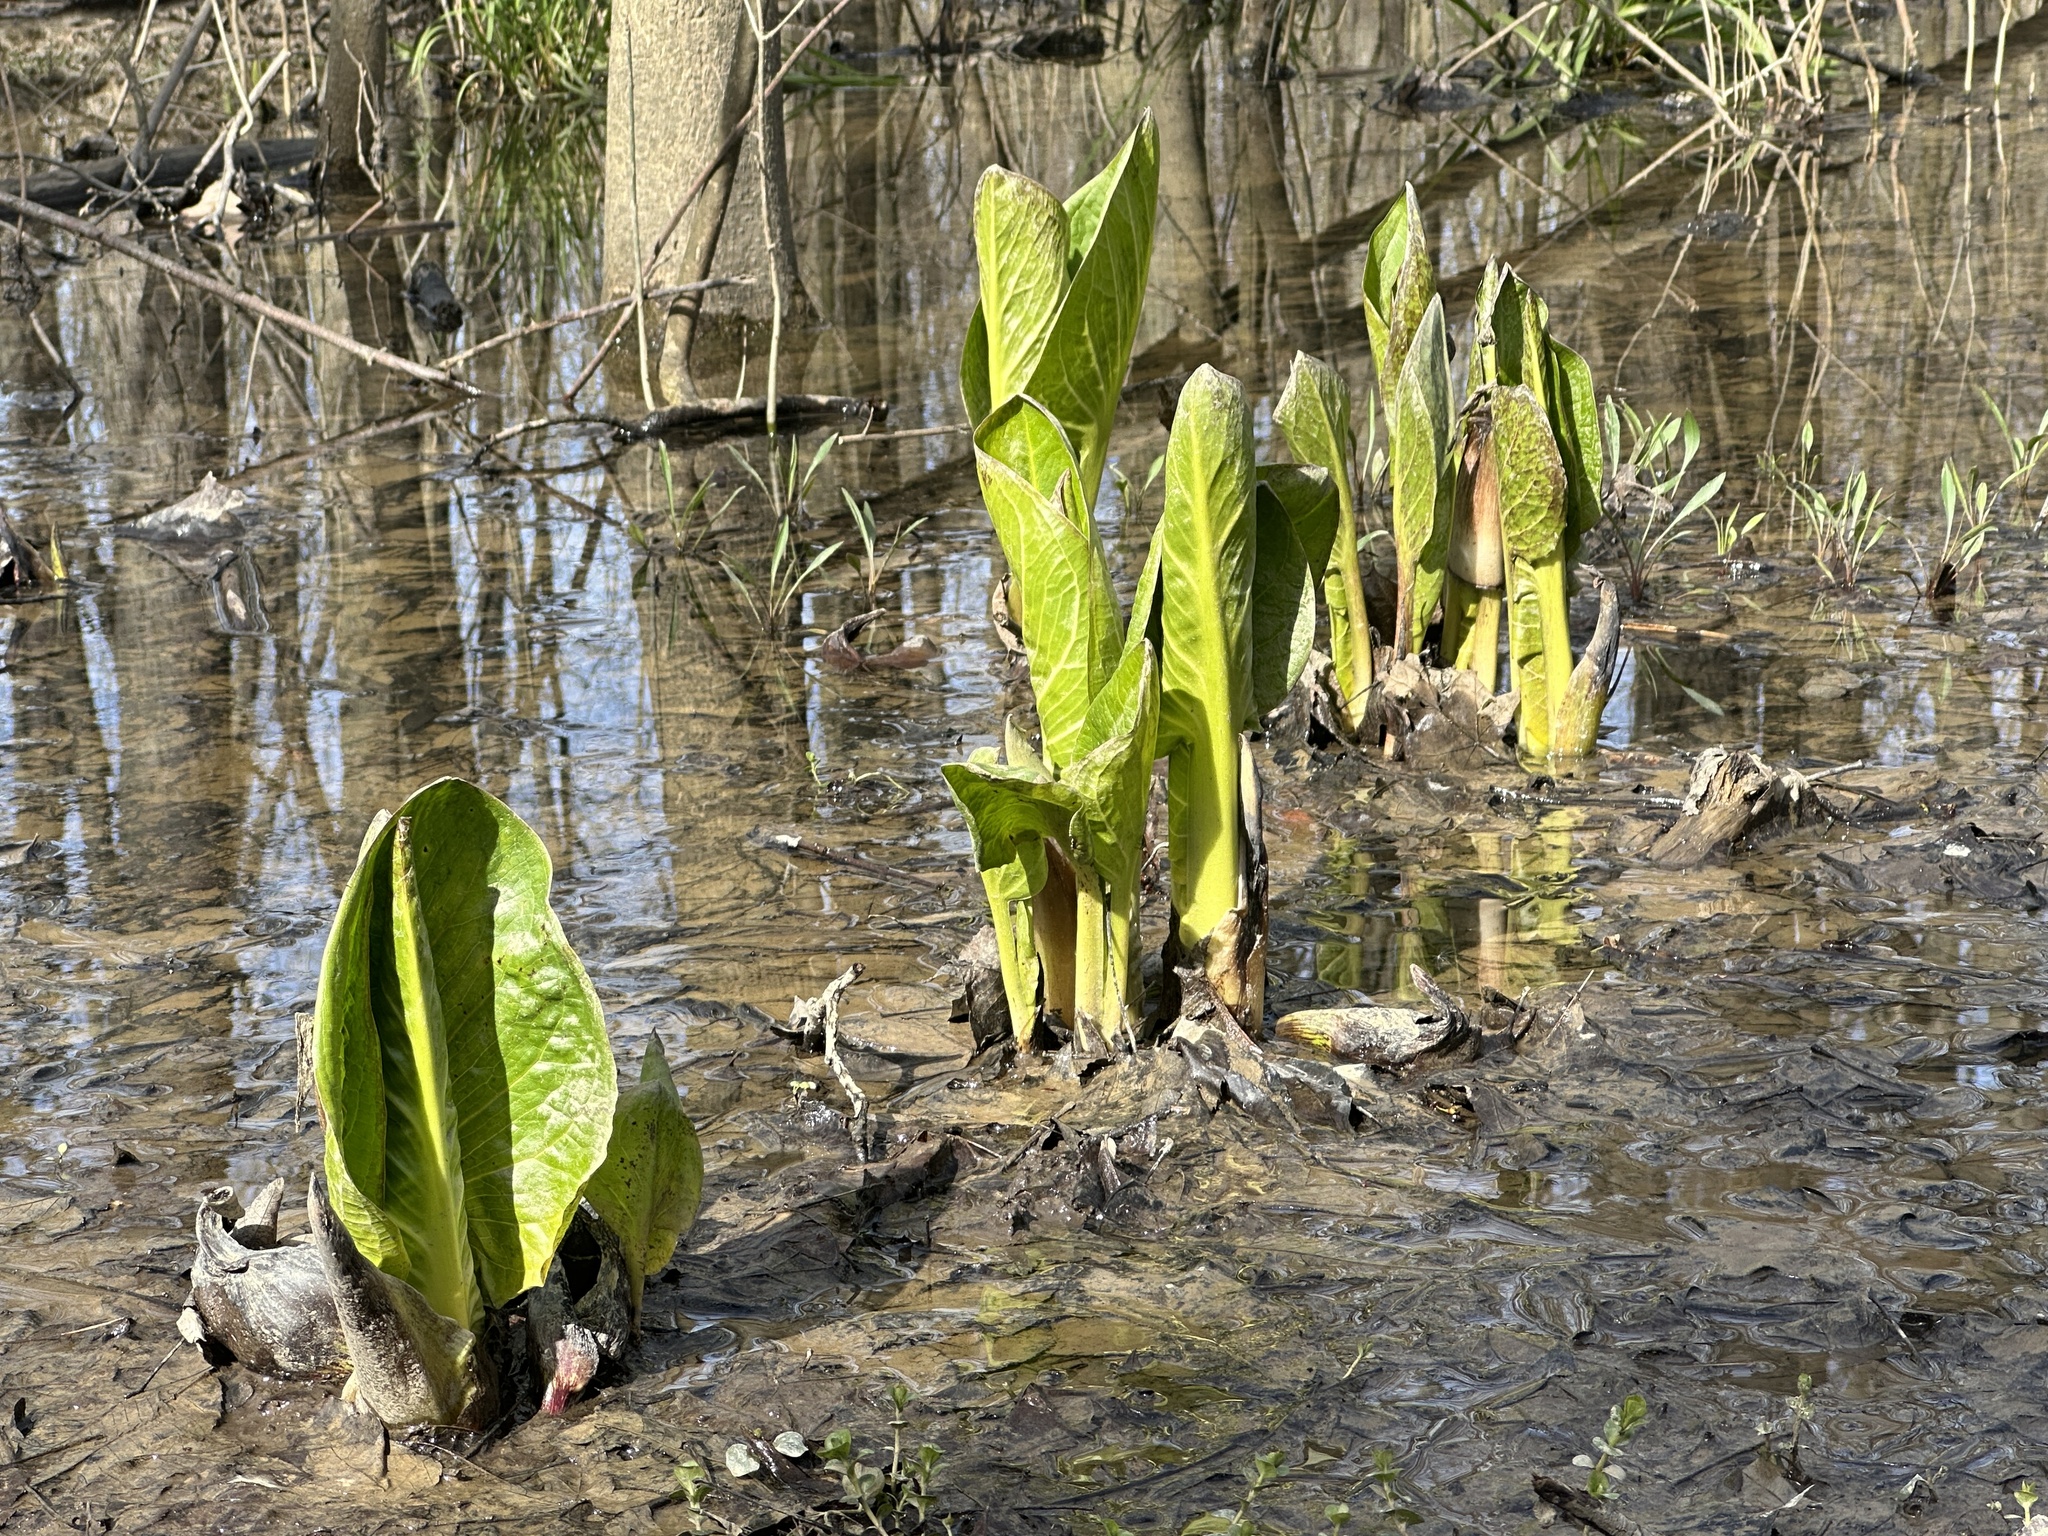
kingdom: Plantae
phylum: Tracheophyta
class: Liliopsida
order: Alismatales
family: Araceae
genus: Symplocarpus
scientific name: Symplocarpus foetidus
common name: Eastern skunk cabbage
